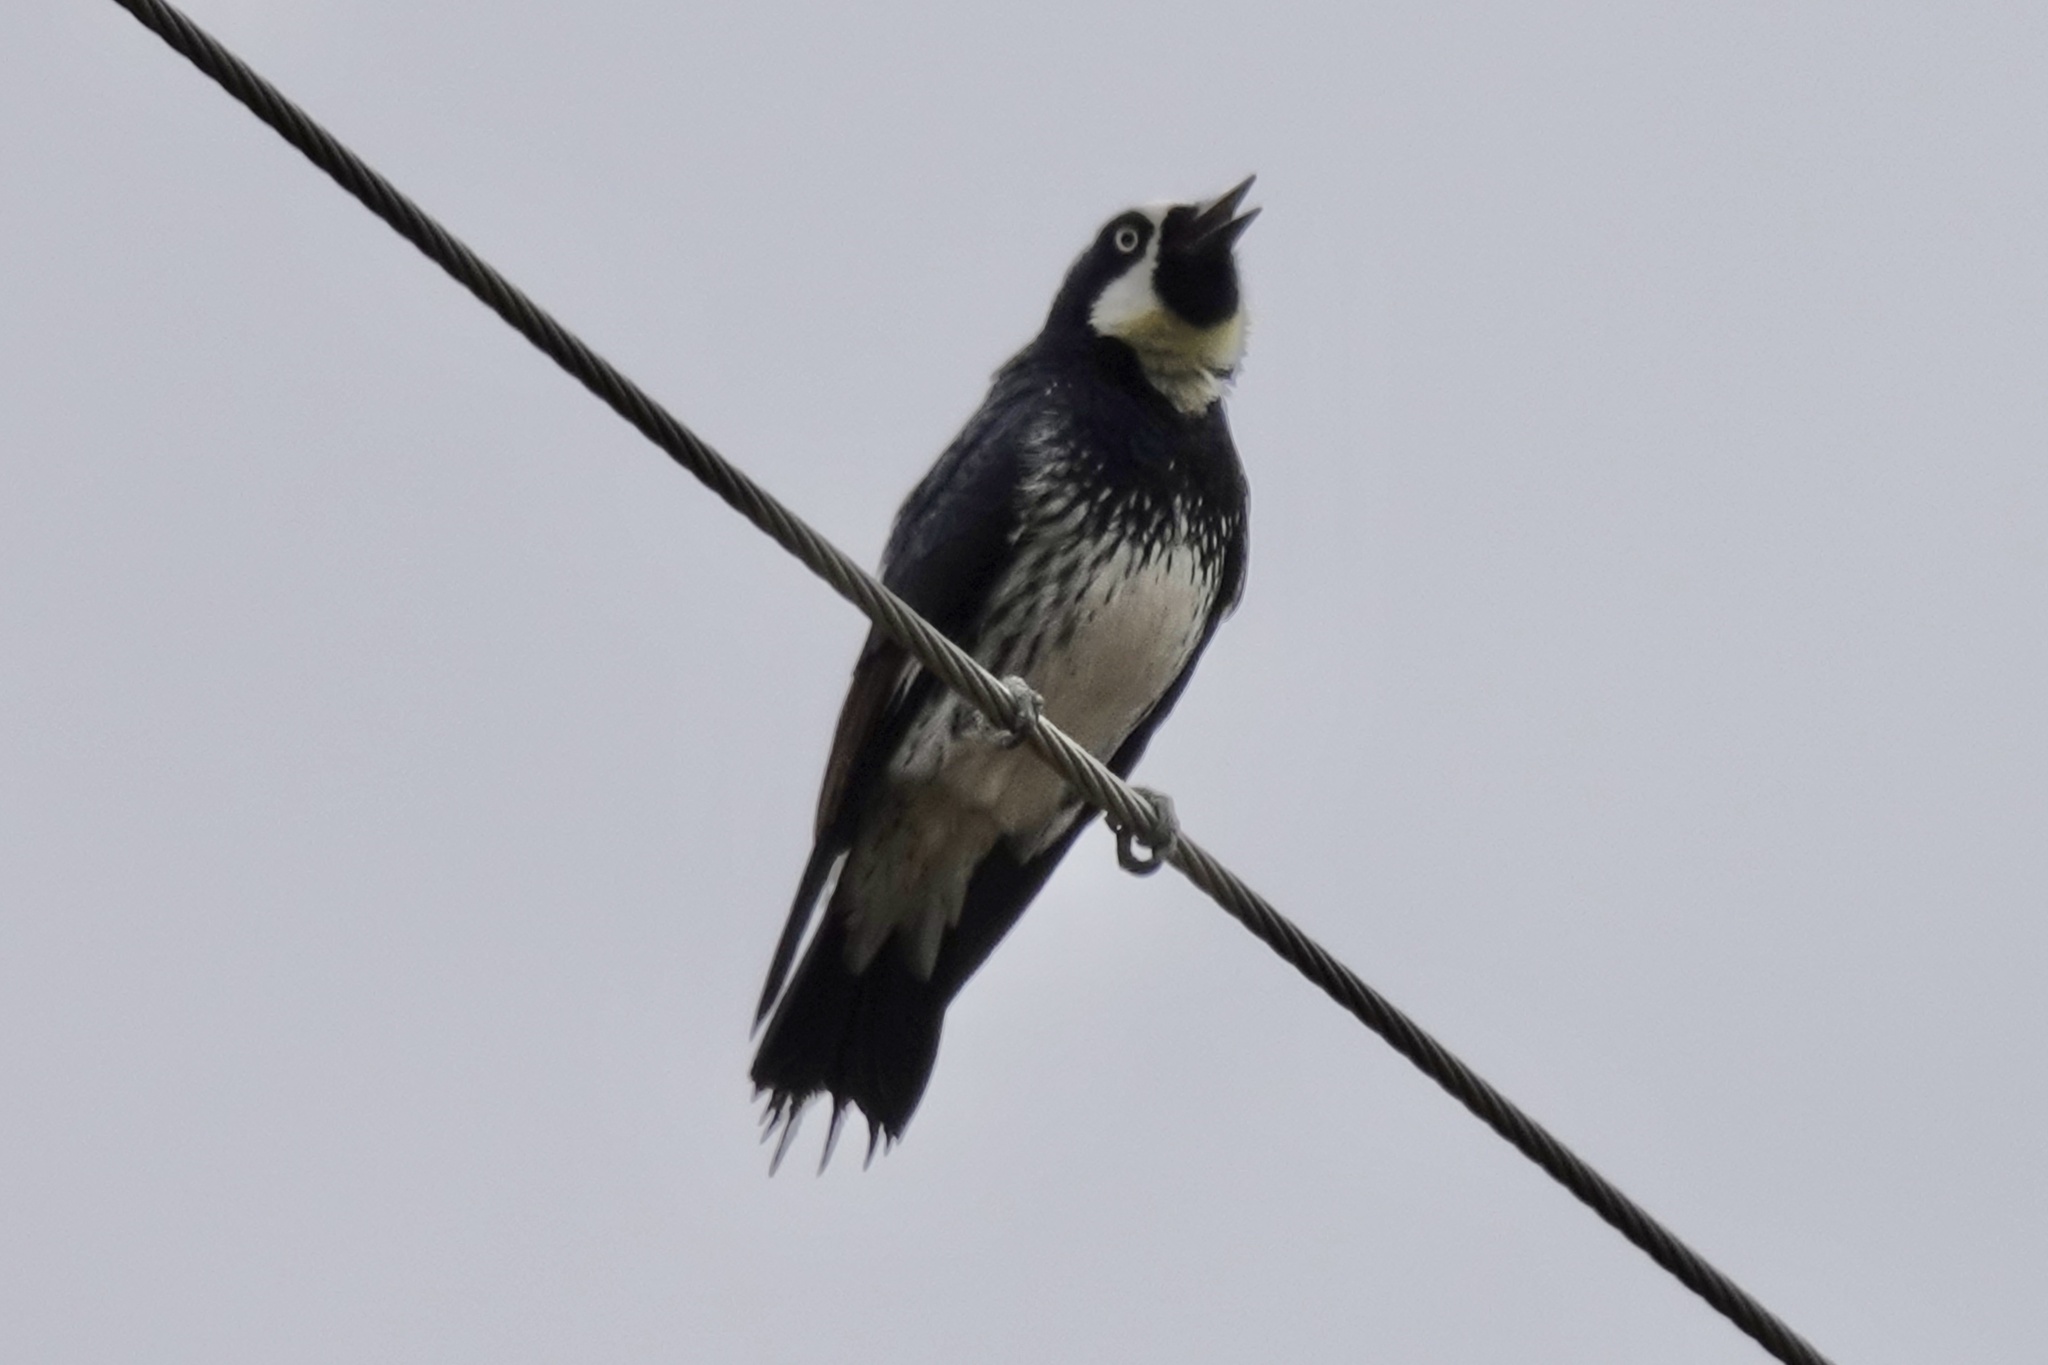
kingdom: Animalia
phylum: Chordata
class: Aves
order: Piciformes
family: Picidae
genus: Melanerpes
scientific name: Melanerpes formicivorus
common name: Acorn woodpecker
